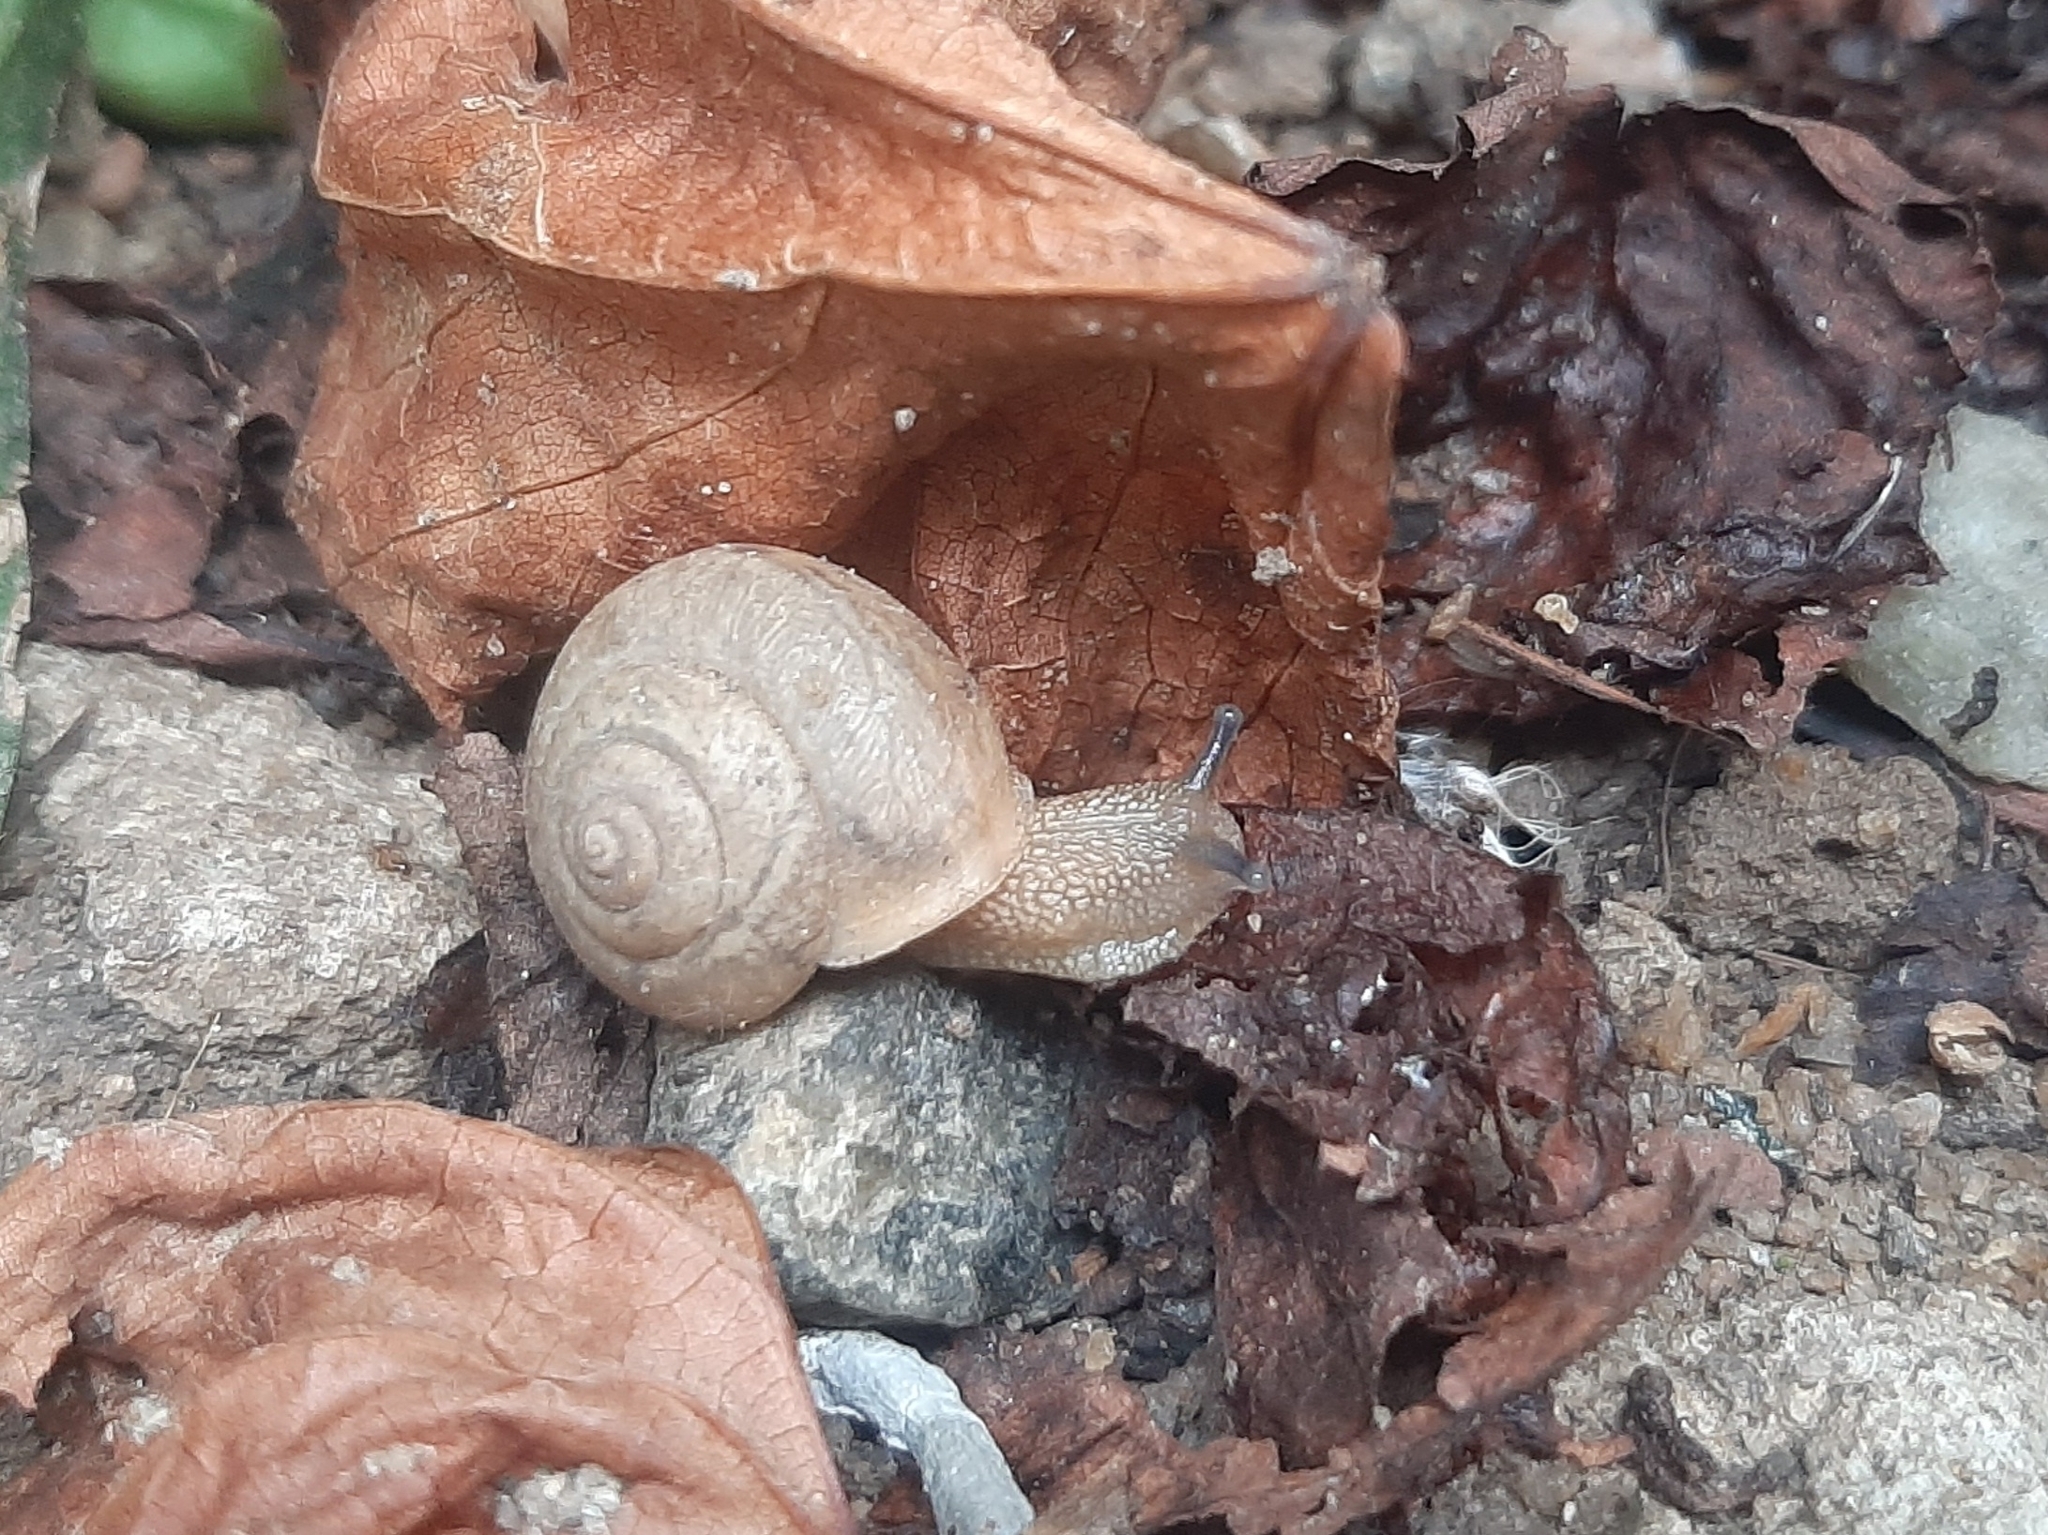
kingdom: Animalia
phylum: Mollusca
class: Gastropoda
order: Stylommatophora
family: Camaenidae
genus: Bradybaena
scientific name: Bradybaena similaris
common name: Asian trampsnail
